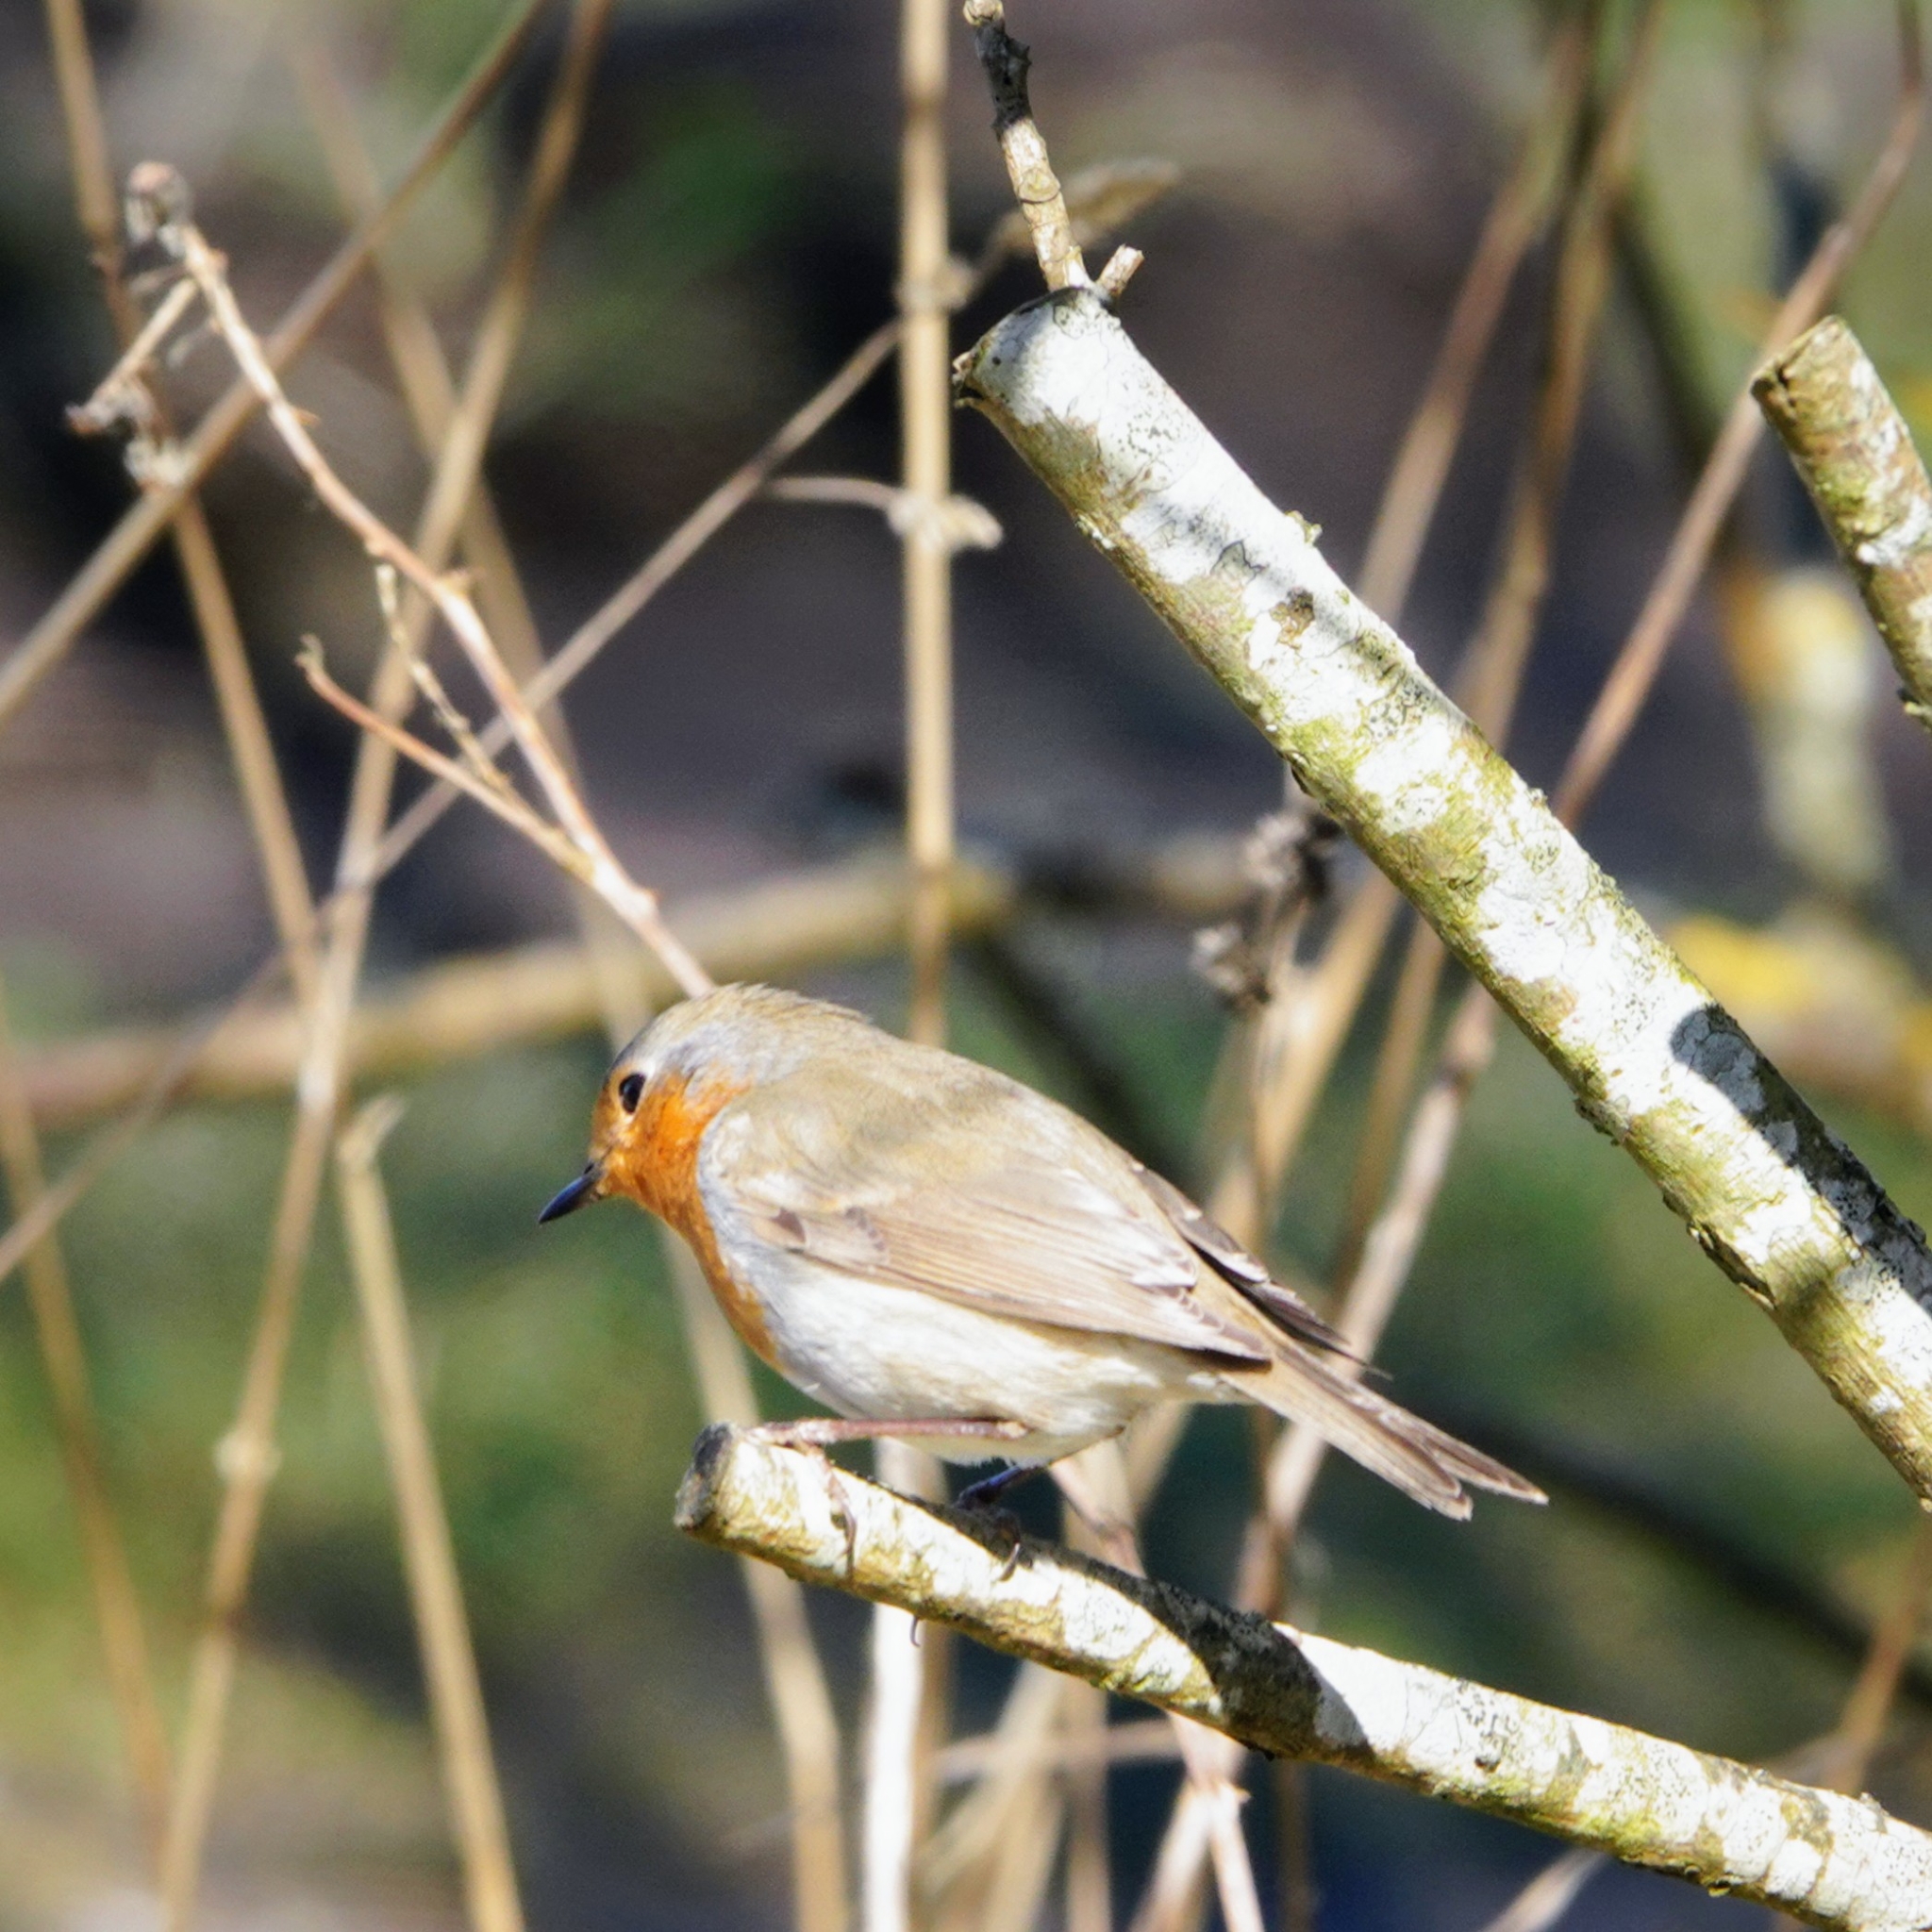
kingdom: Animalia
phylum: Chordata
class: Aves
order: Passeriformes
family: Muscicapidae
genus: Erithacus
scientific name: Erithacus rubecula
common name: European robin
